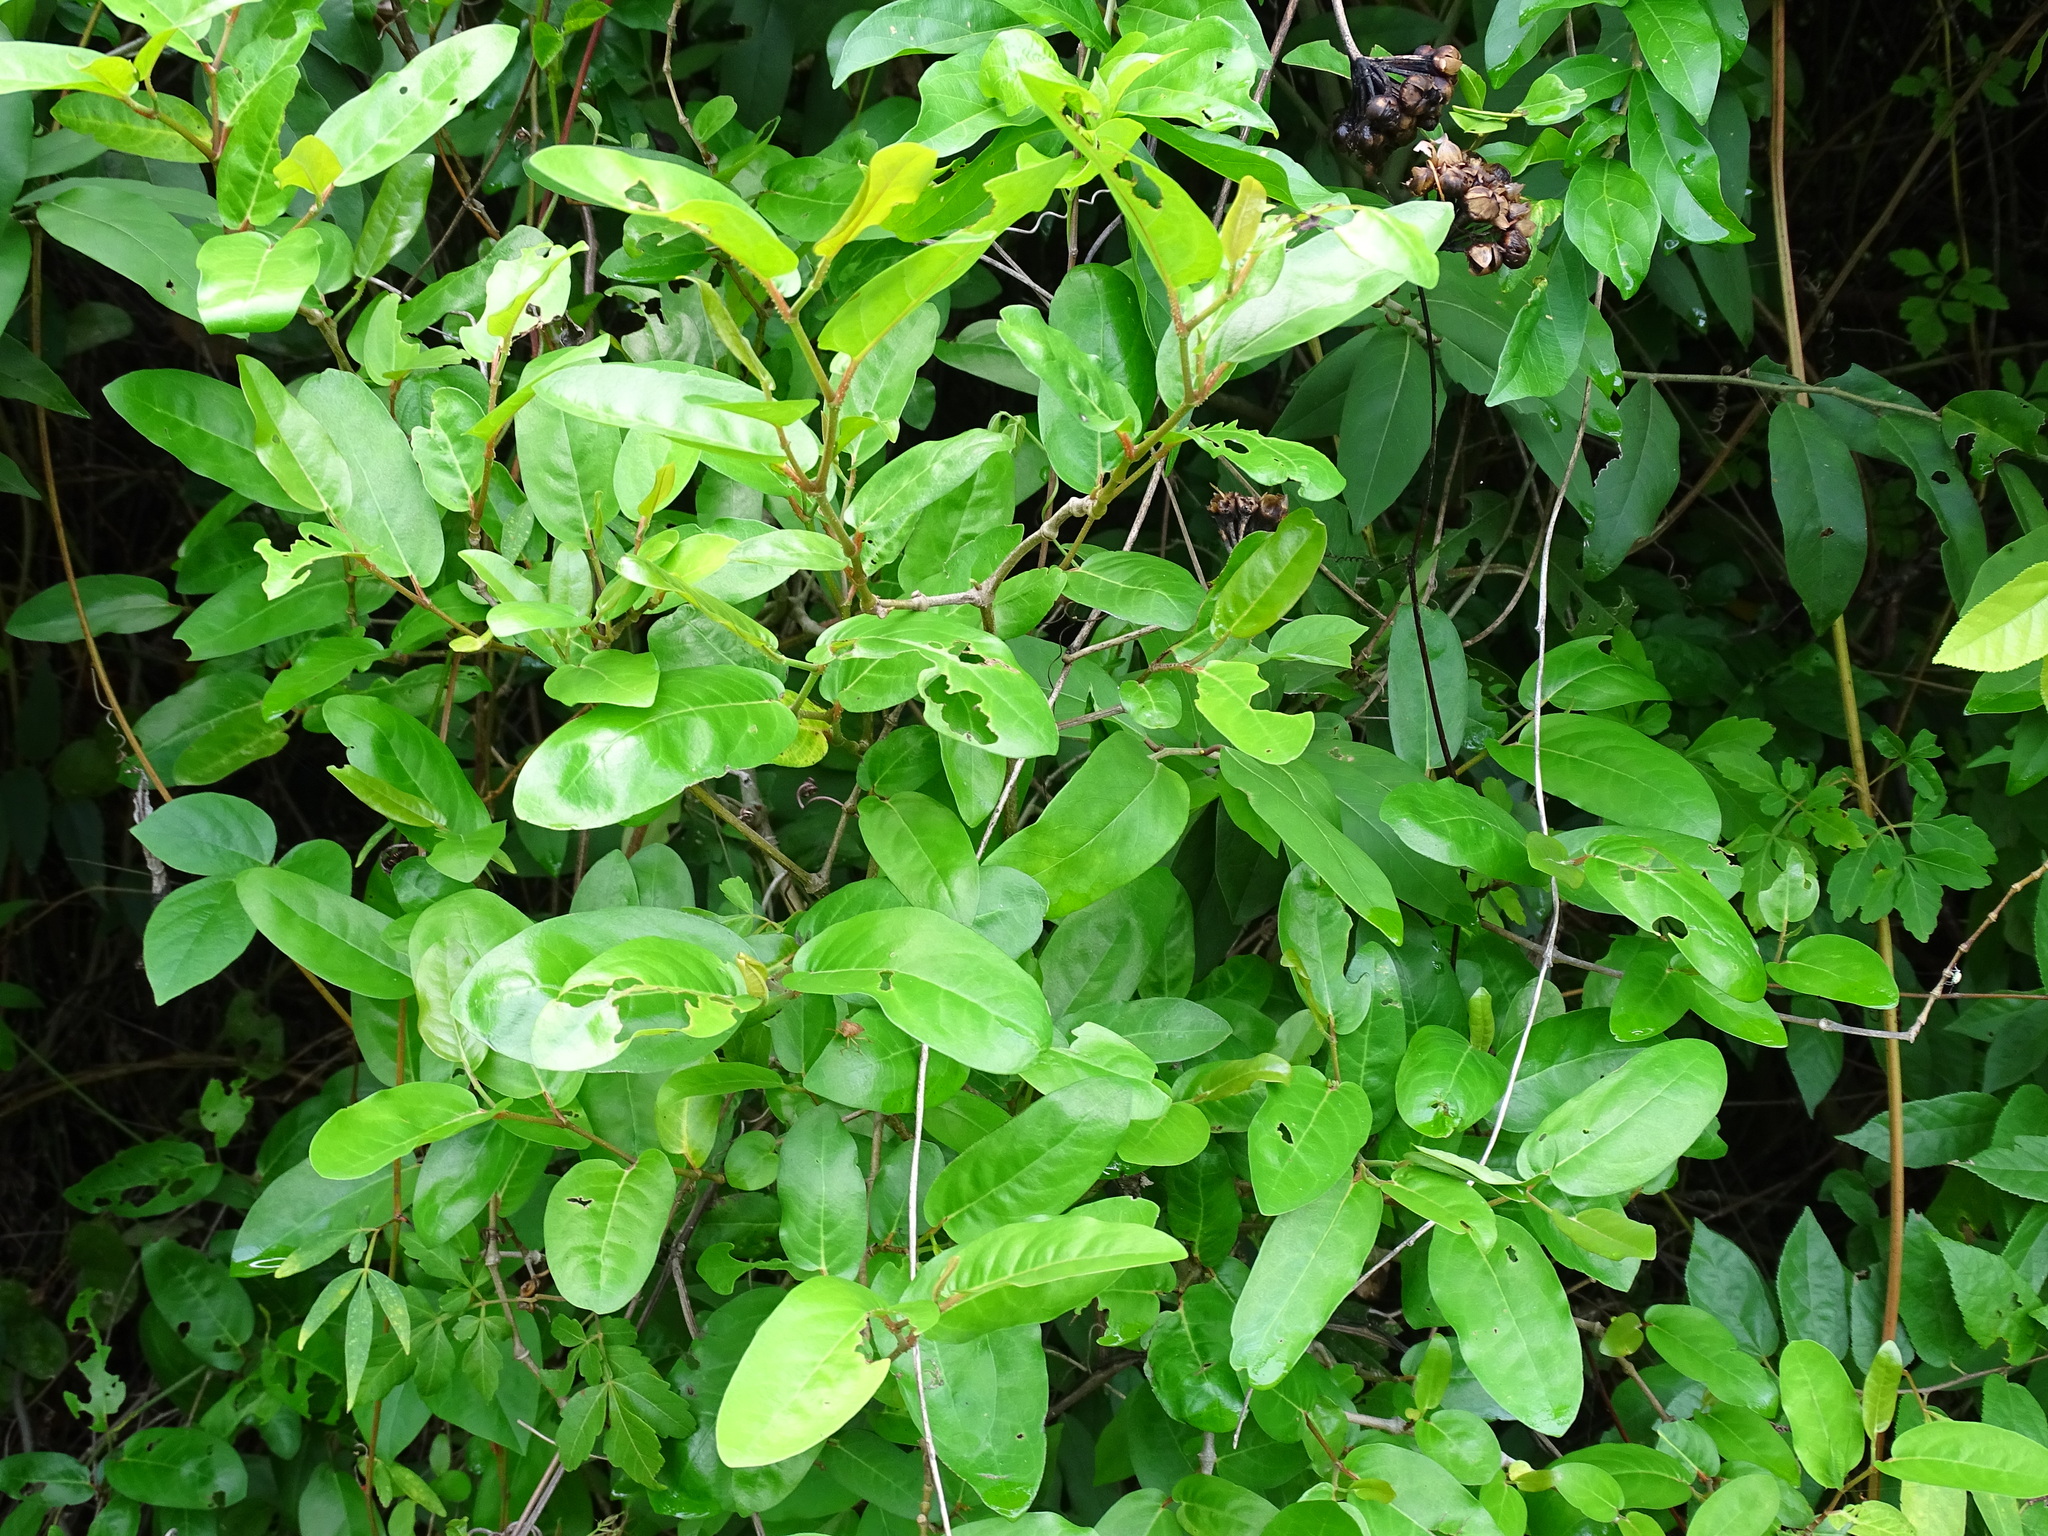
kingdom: Plantae
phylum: Tracheophyta
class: Magnoliopsida
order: Piperales
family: Piperaceae
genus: Piper
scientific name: Piper tuberculatum
